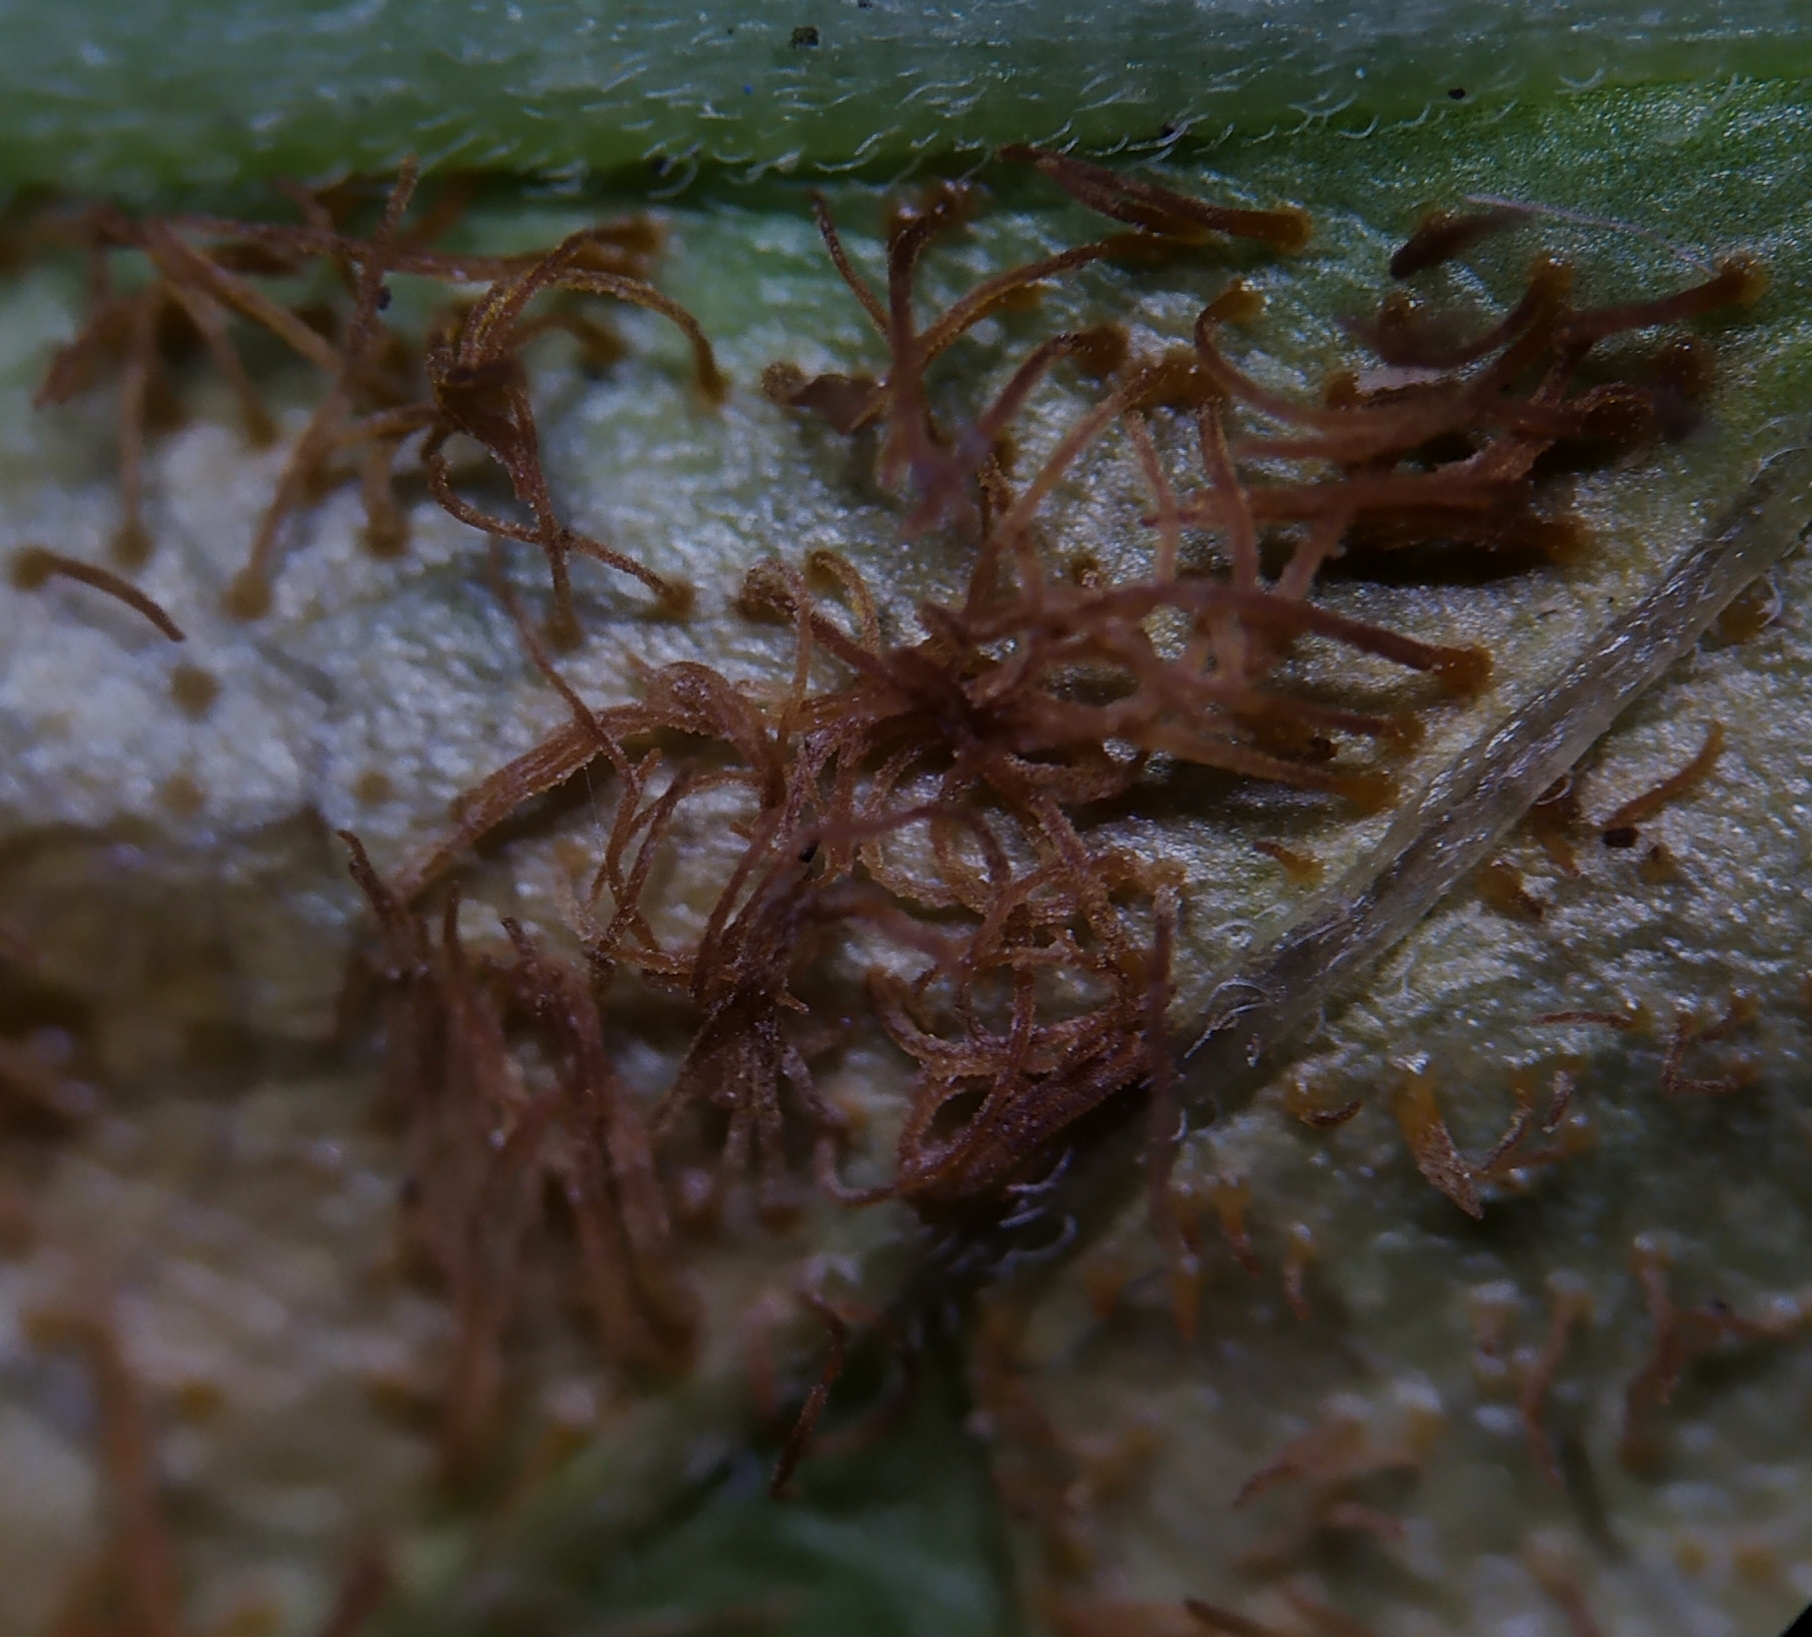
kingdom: Fungi
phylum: Basidiomycota
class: Pucciniomycetes
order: Pucciniales
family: Cronartiaceae
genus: Cronartium
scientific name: Cronartium pini
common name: Scots pine blister rust
